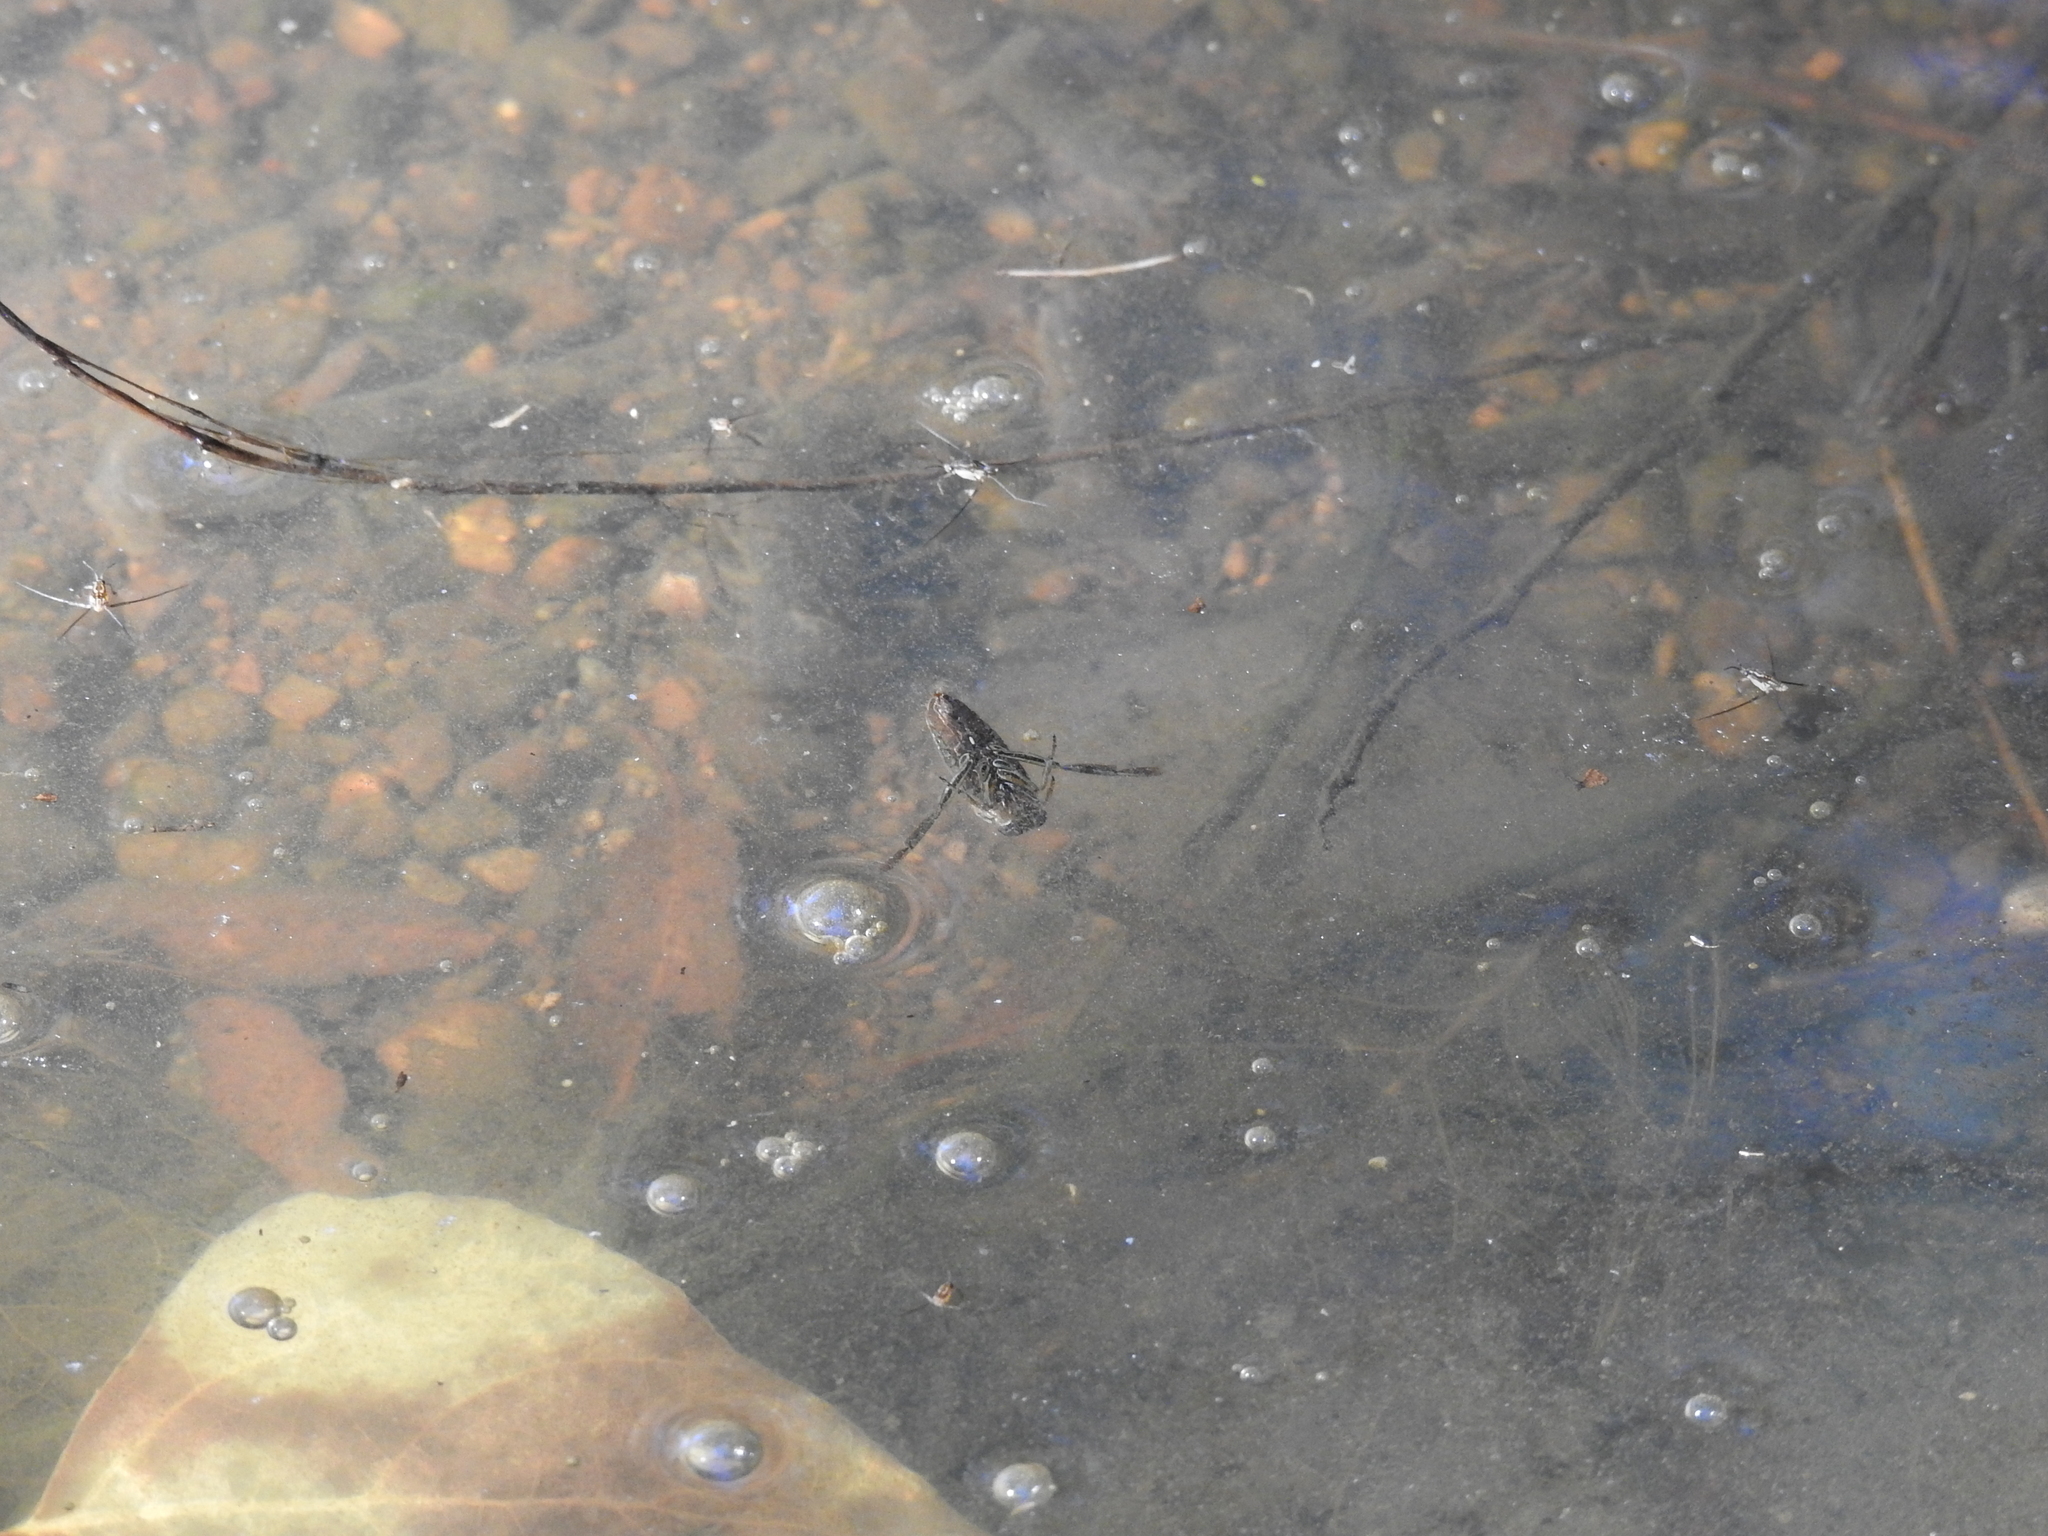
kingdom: Animalia
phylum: Arthropoda
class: Insecta
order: Hemiptera
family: Notonectidae
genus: Notonecta
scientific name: Notonecta
